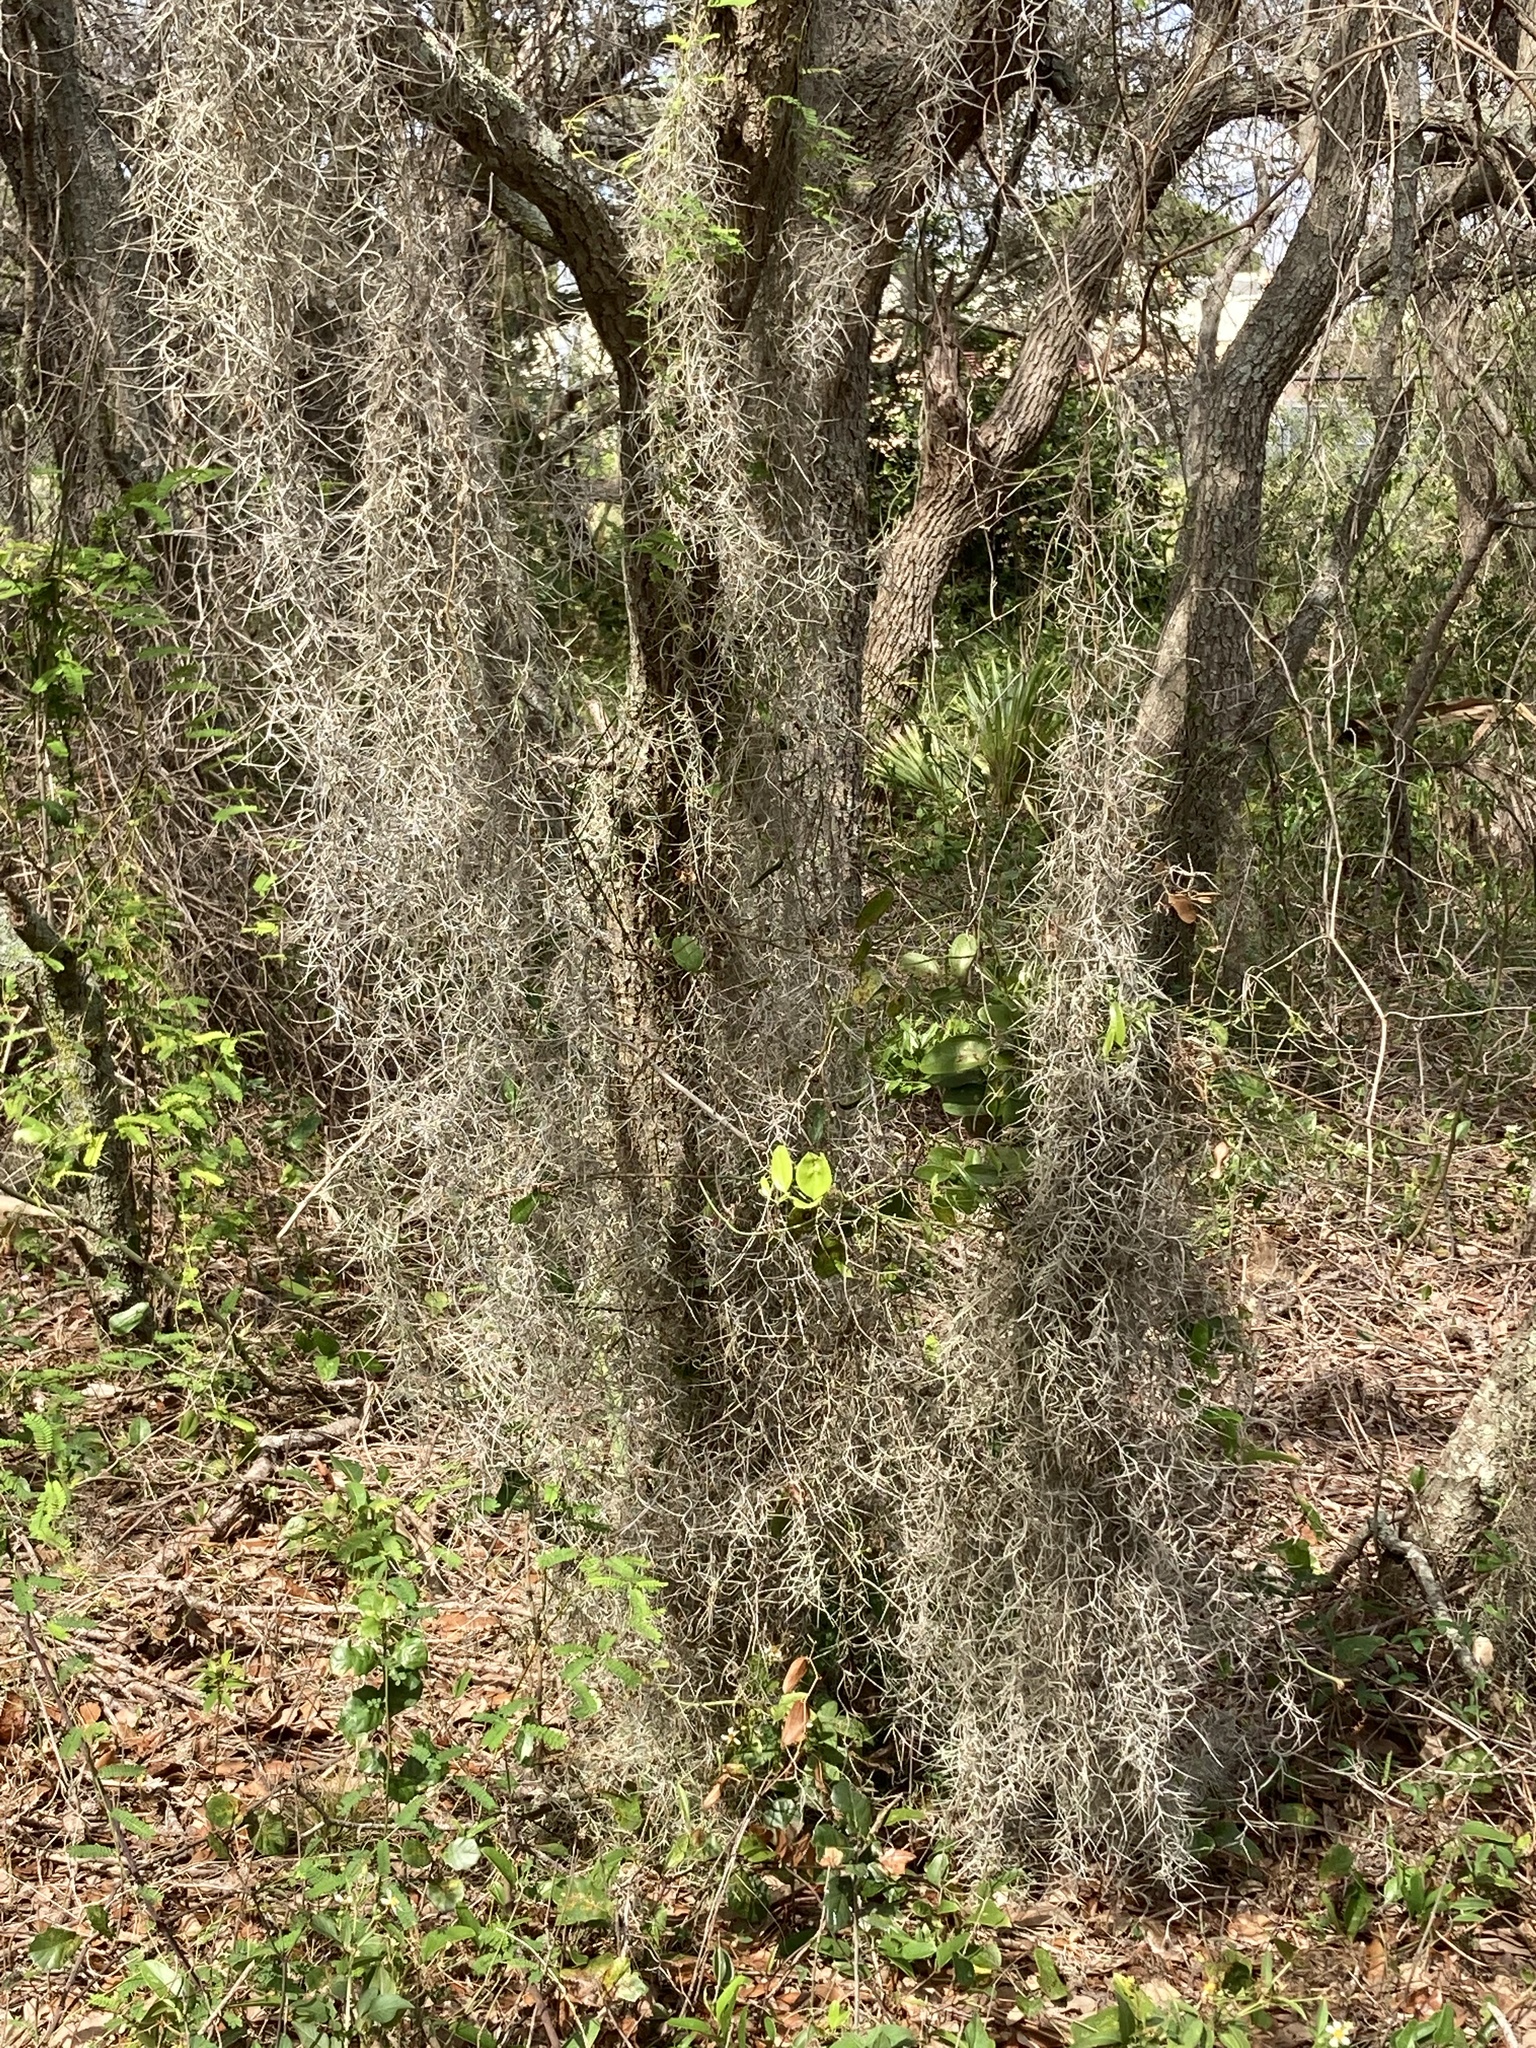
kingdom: Plantae
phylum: Tracheophyta
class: Liliopsida
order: Poales
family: Bromeliaceae
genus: Tillandsia
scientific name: Tillandsia usneoides
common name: Spanish moss
